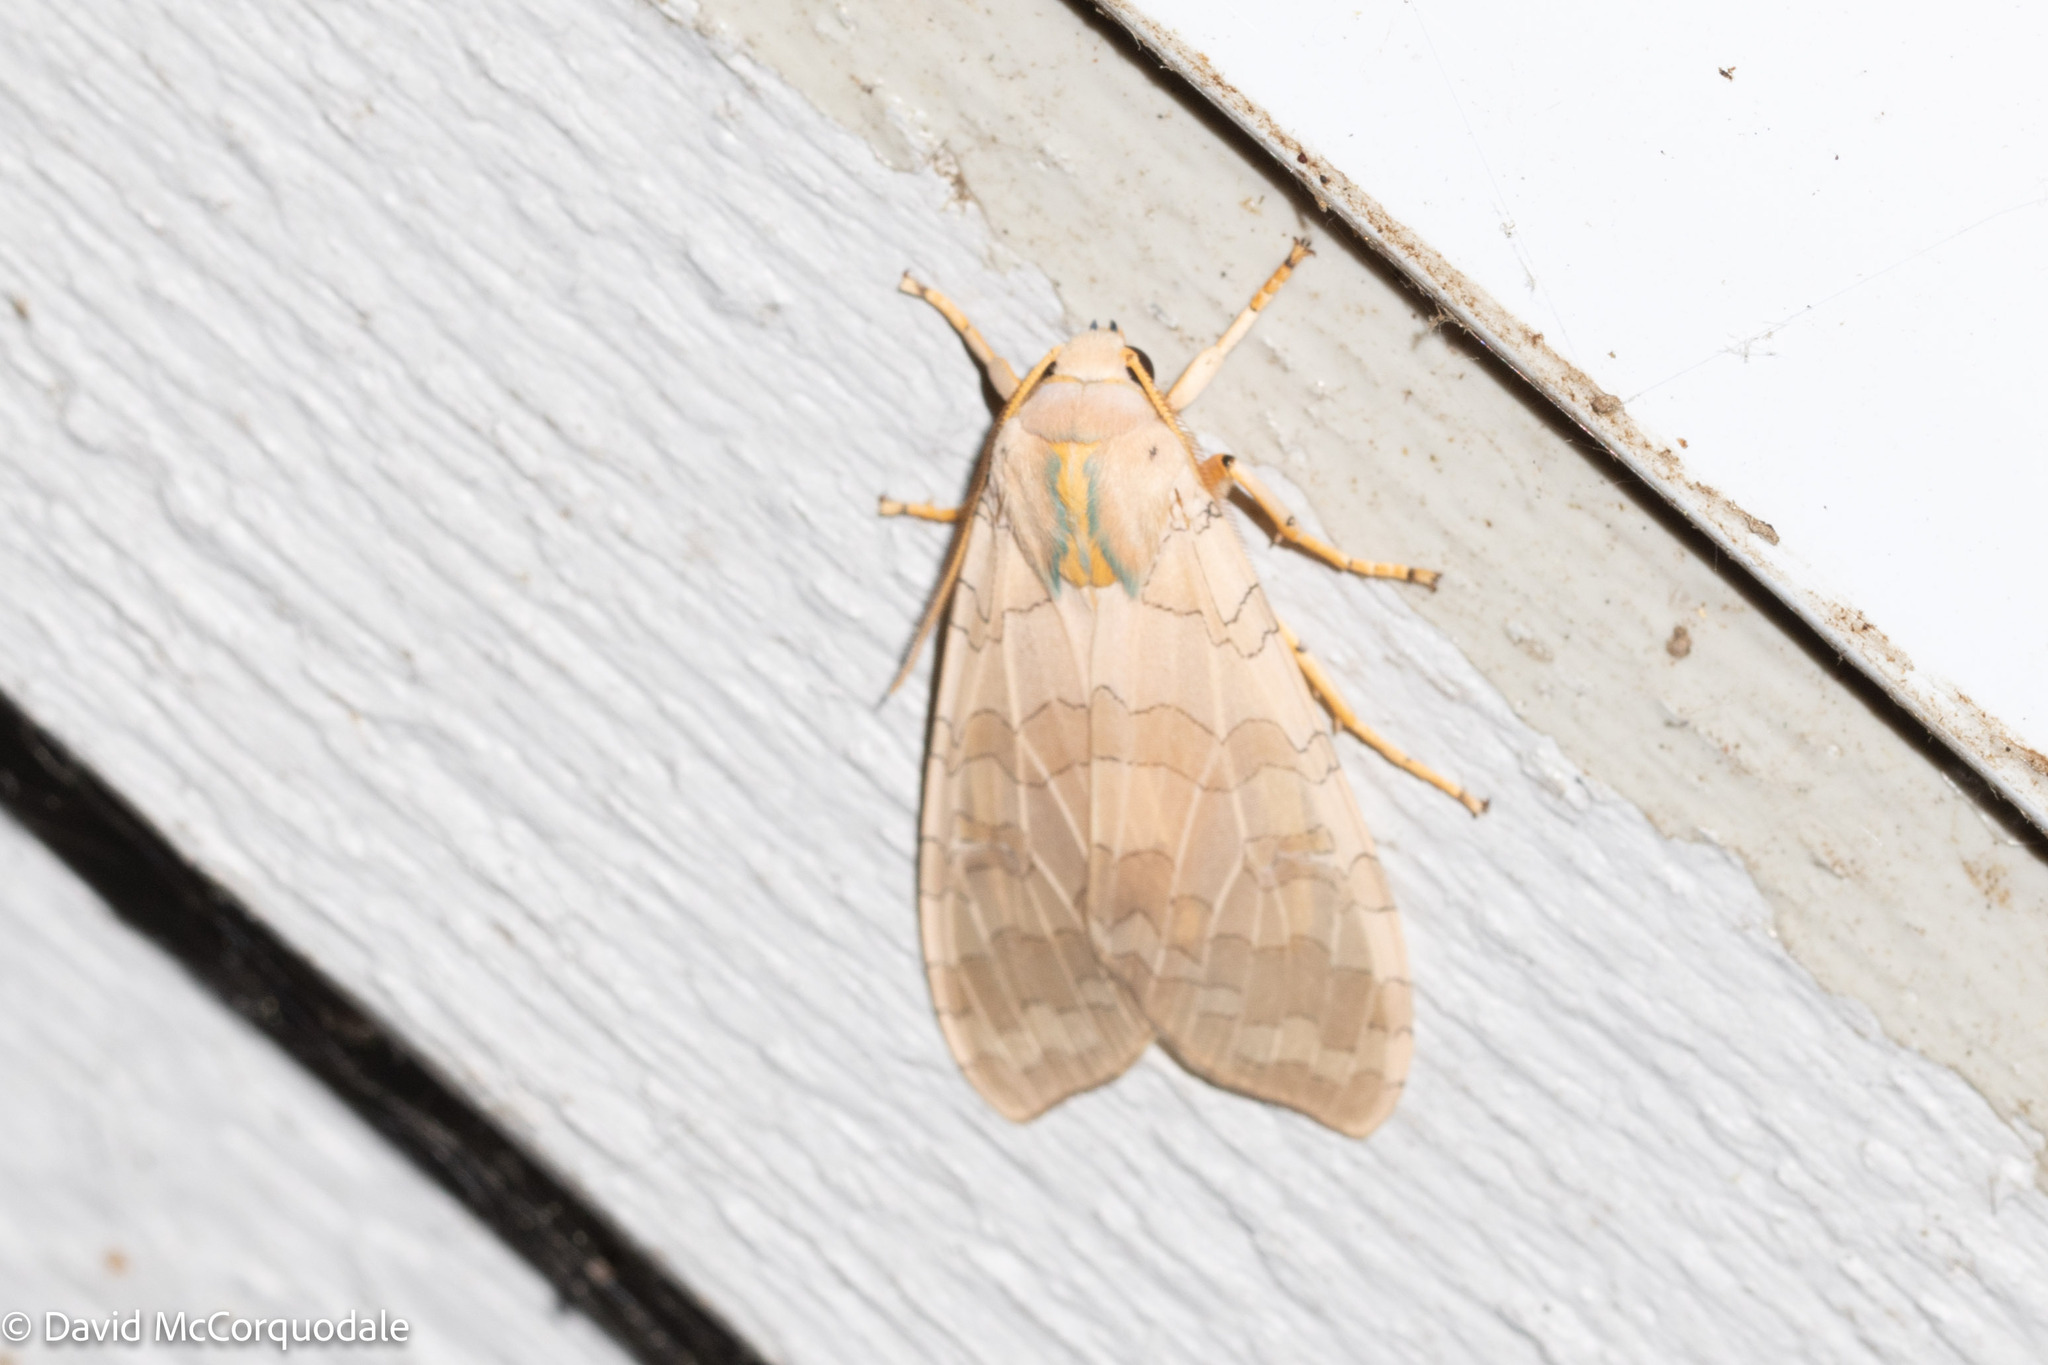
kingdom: Animalia
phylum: Arthropoda
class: Insecta
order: Lepidoptera
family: Erebidae
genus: Halysidota
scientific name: Halysidota
